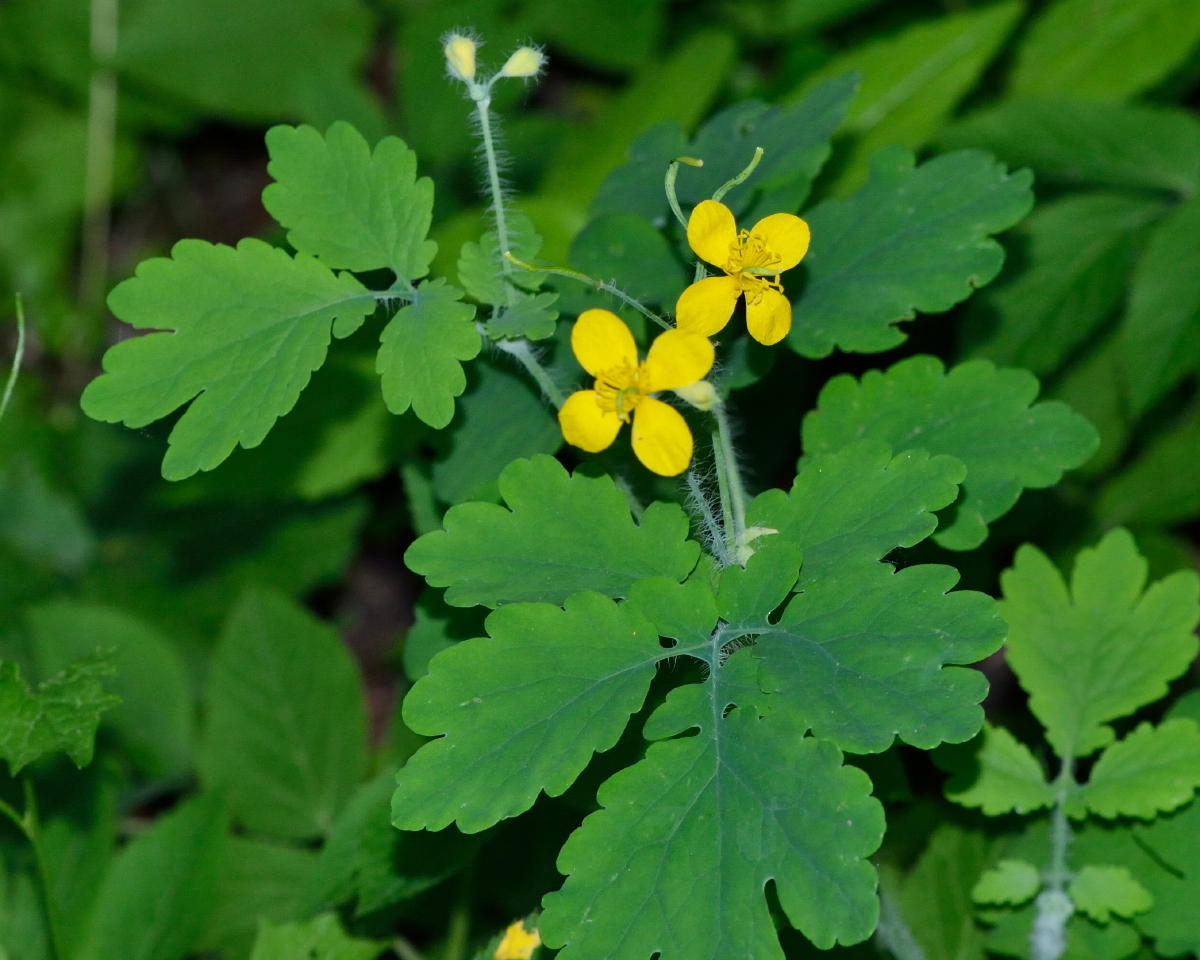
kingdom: Plantae
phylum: Tracheophyta
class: Magnoliopsida
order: Ranunculales
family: Papaveraceae
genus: Chelidonium
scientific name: Chelidonium majus
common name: Greater celandine
